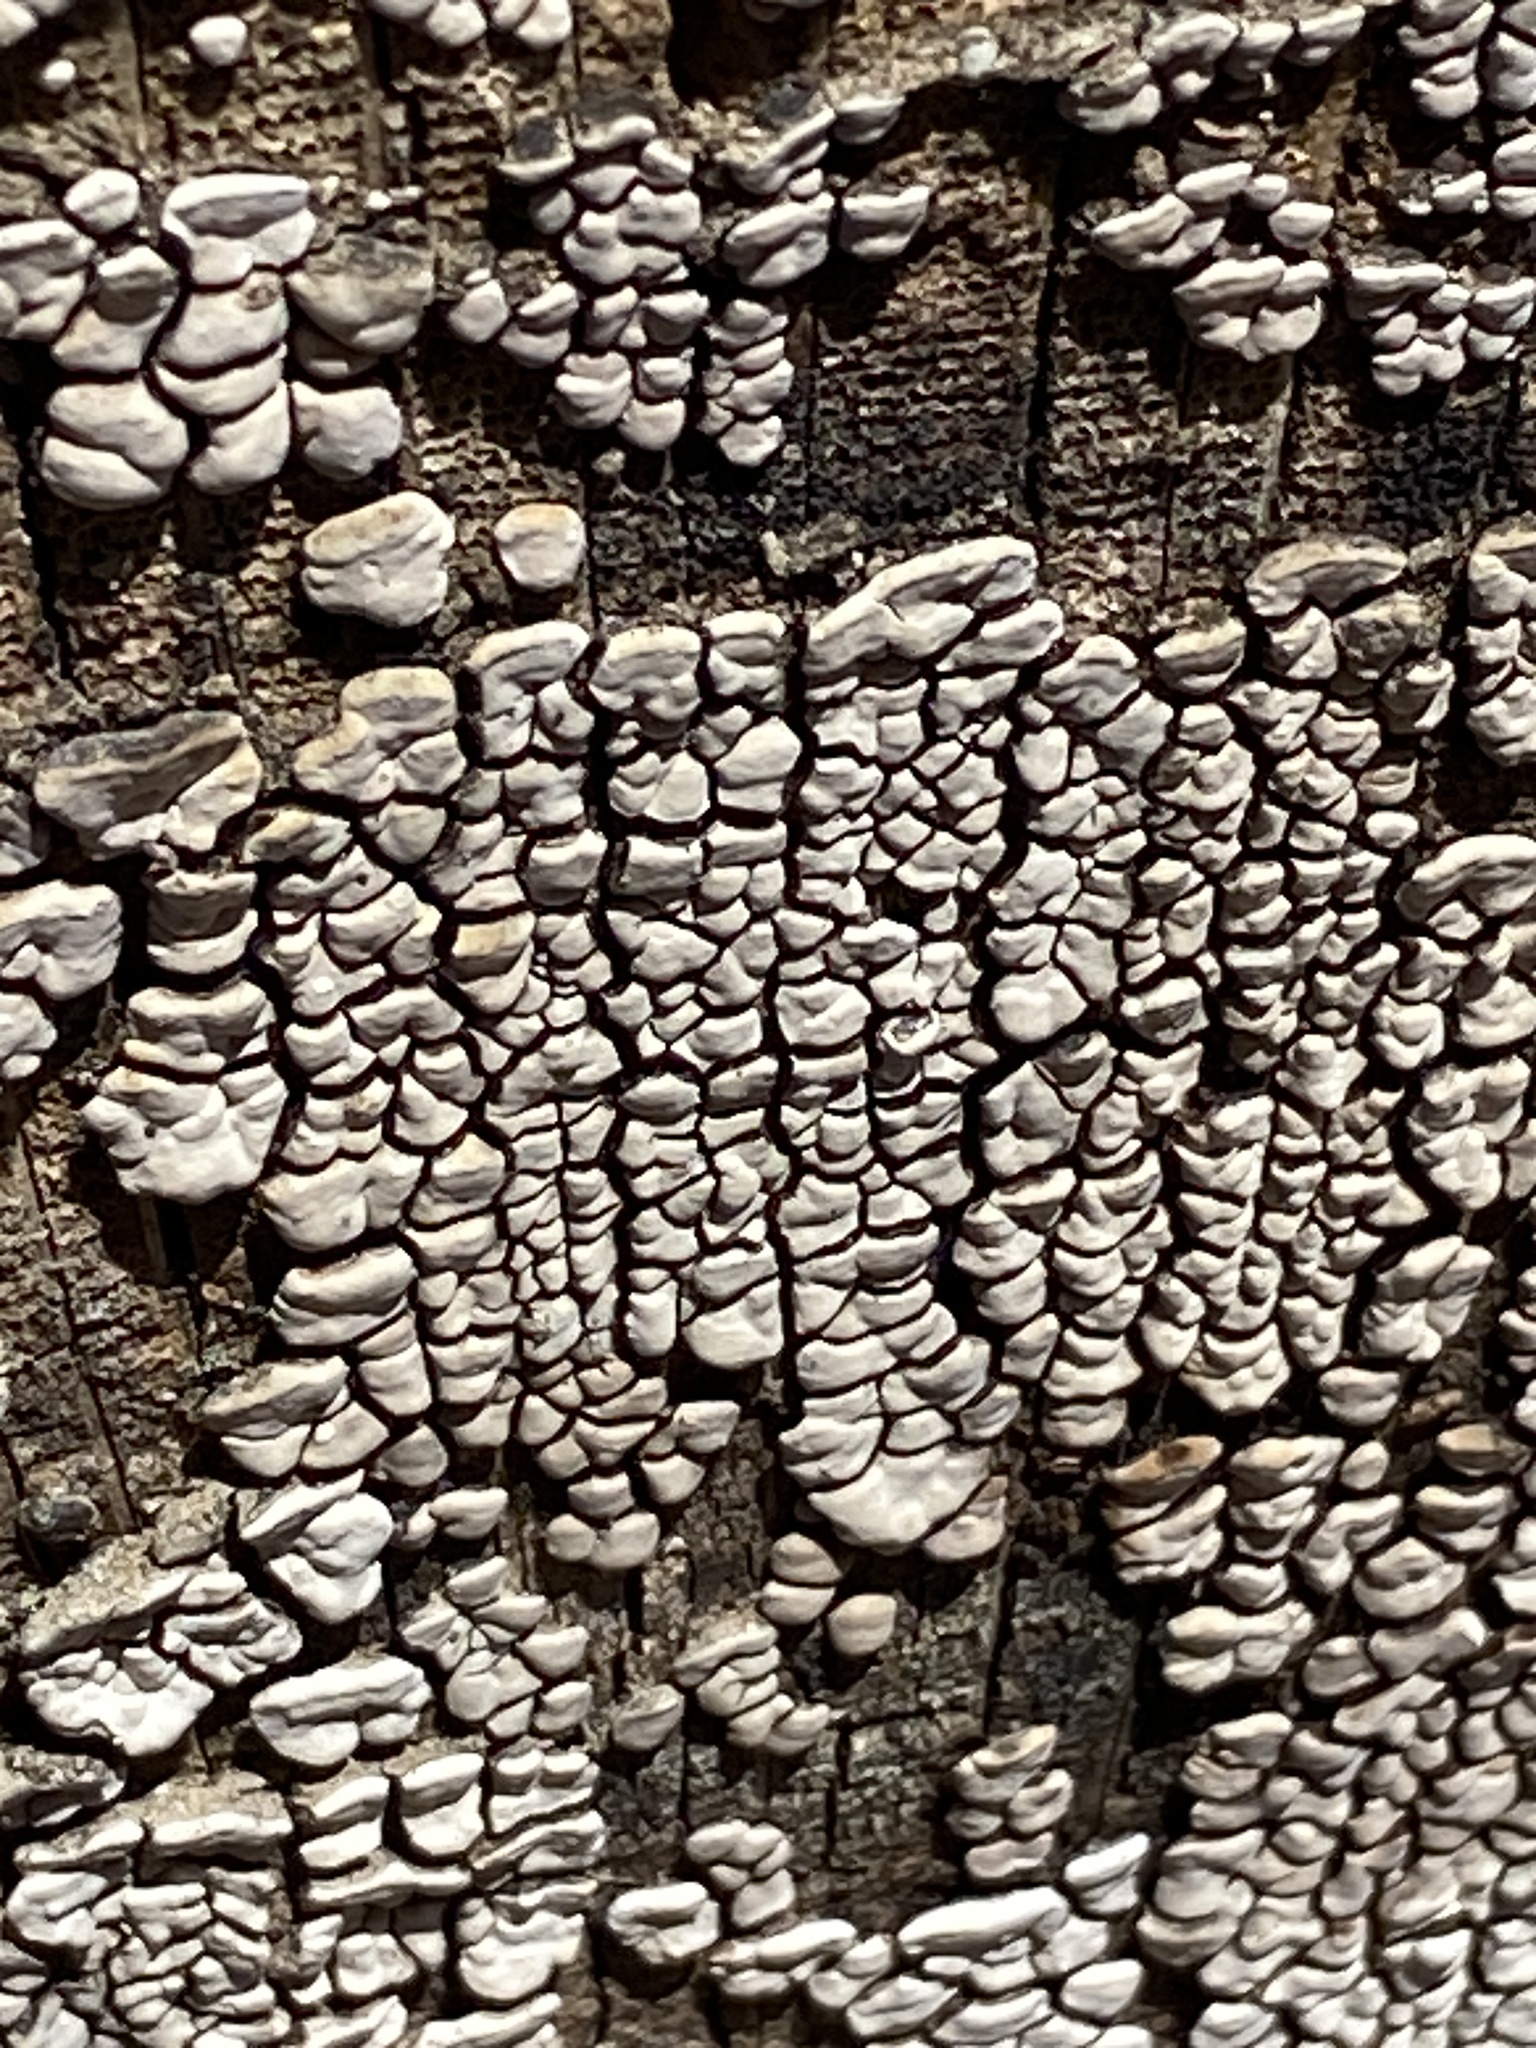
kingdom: Fungi
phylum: Basidiomycota
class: Agaricomycetes
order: Russulales
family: Stereaceae
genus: Xylobolus
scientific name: Xylobolus frustulatus
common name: Ceramic parchment
